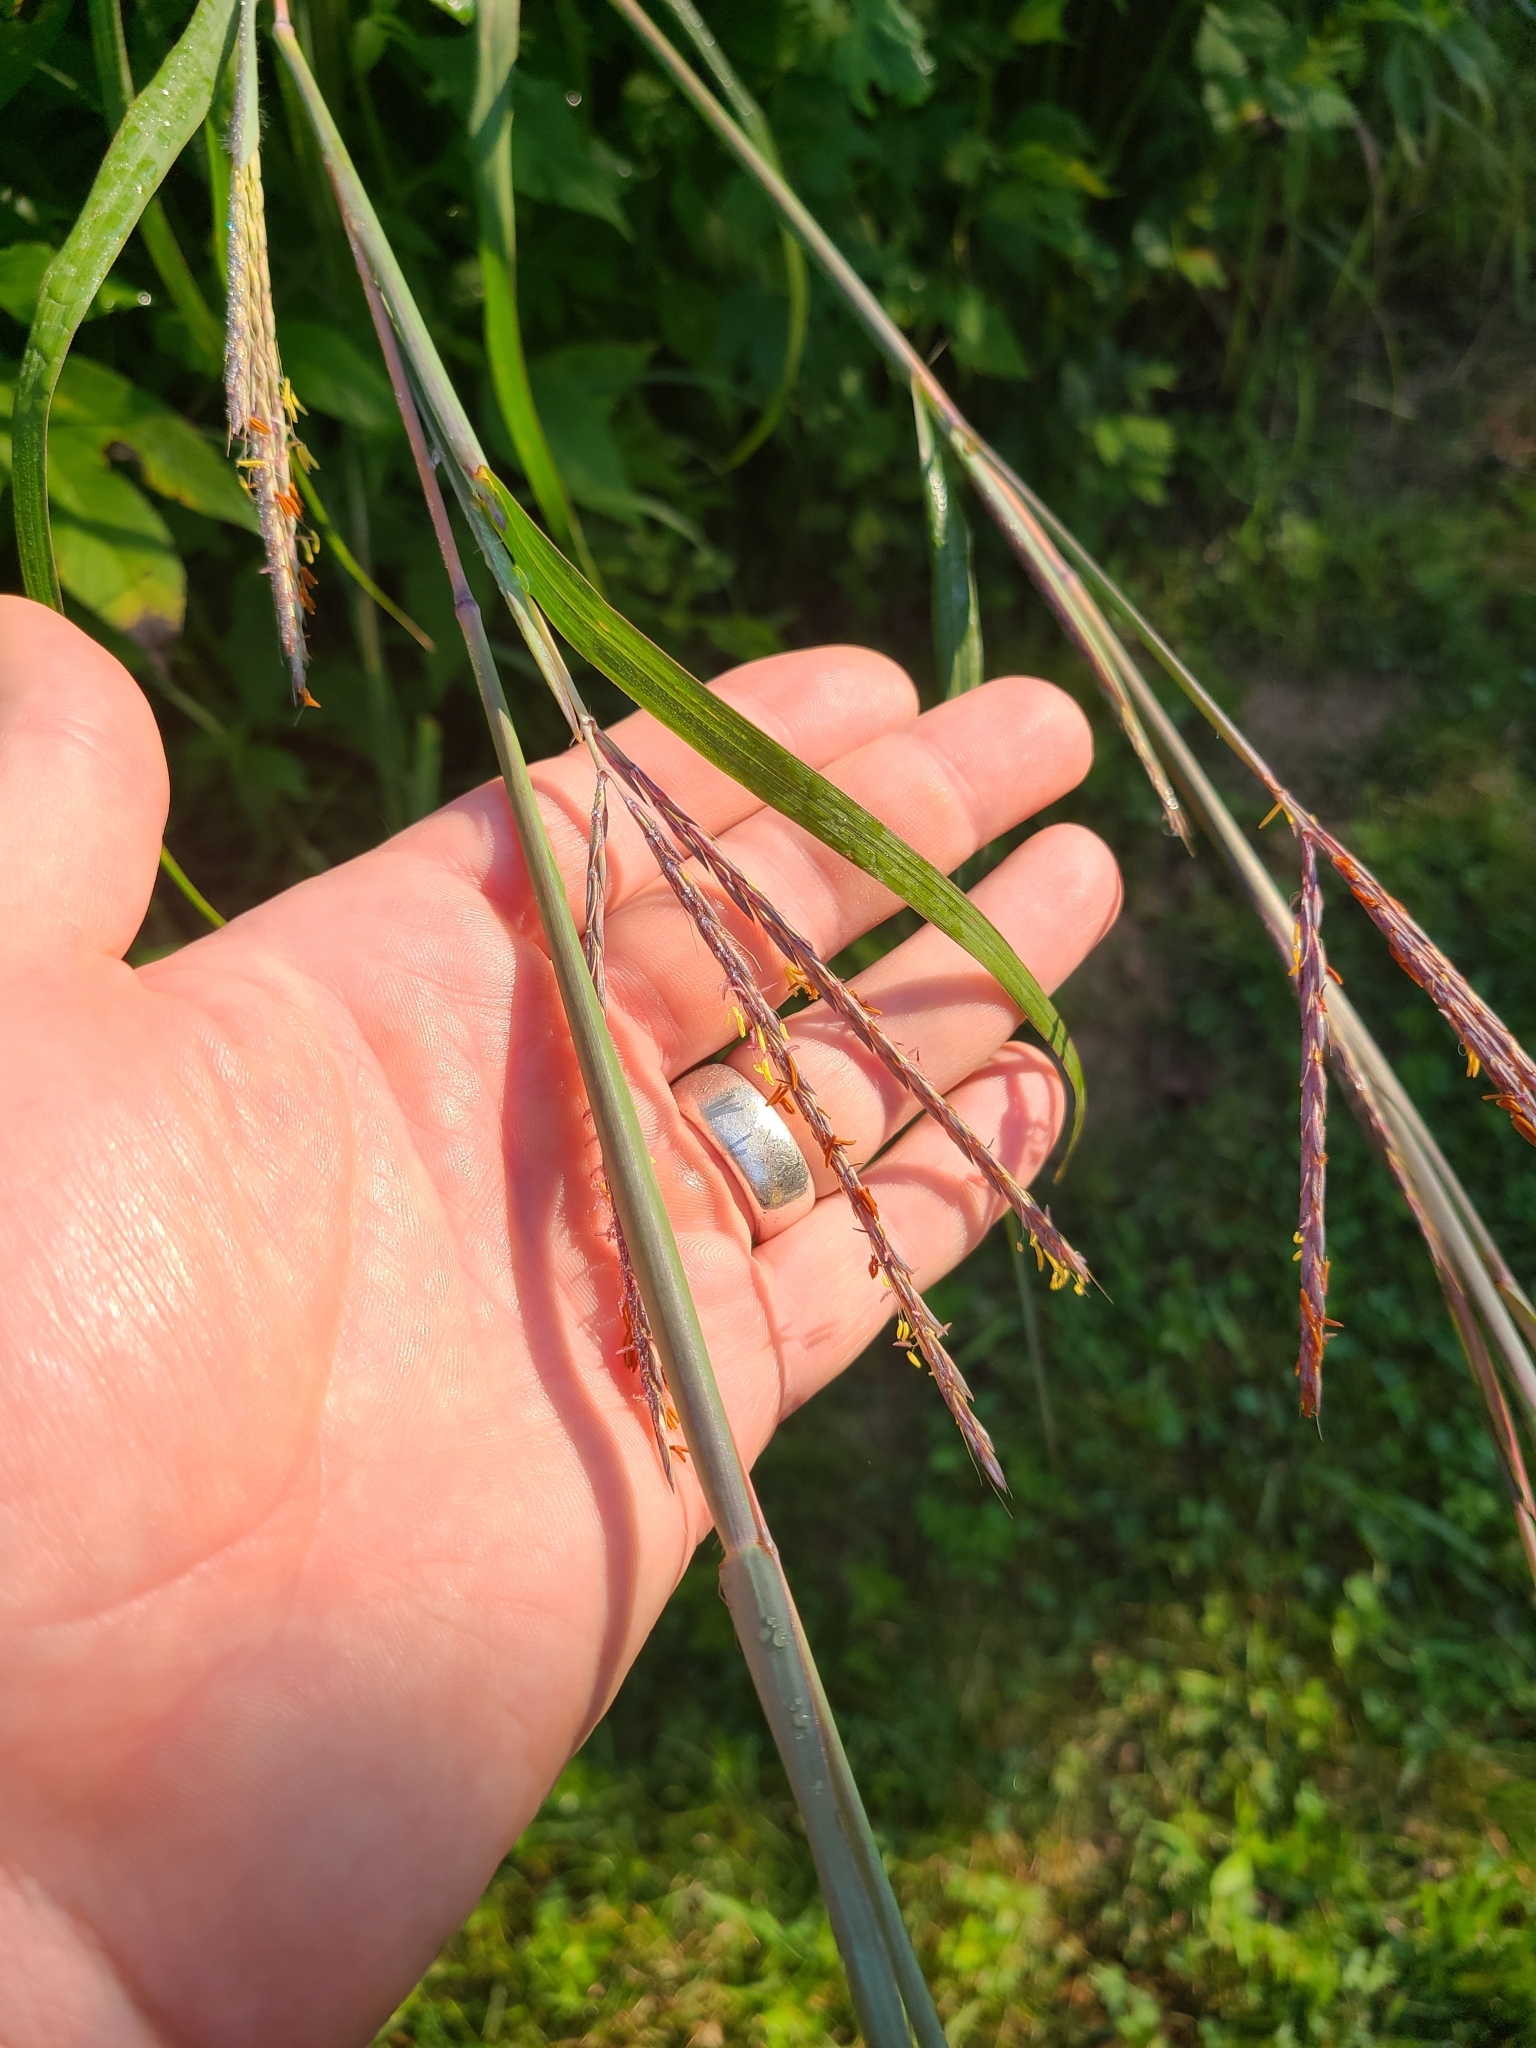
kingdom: Plantae
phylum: Tracheophyta
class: Liliopsida
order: Poales
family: Poaceae
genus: Andropogon
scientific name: Andropogon gerardi
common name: Big bluestem
